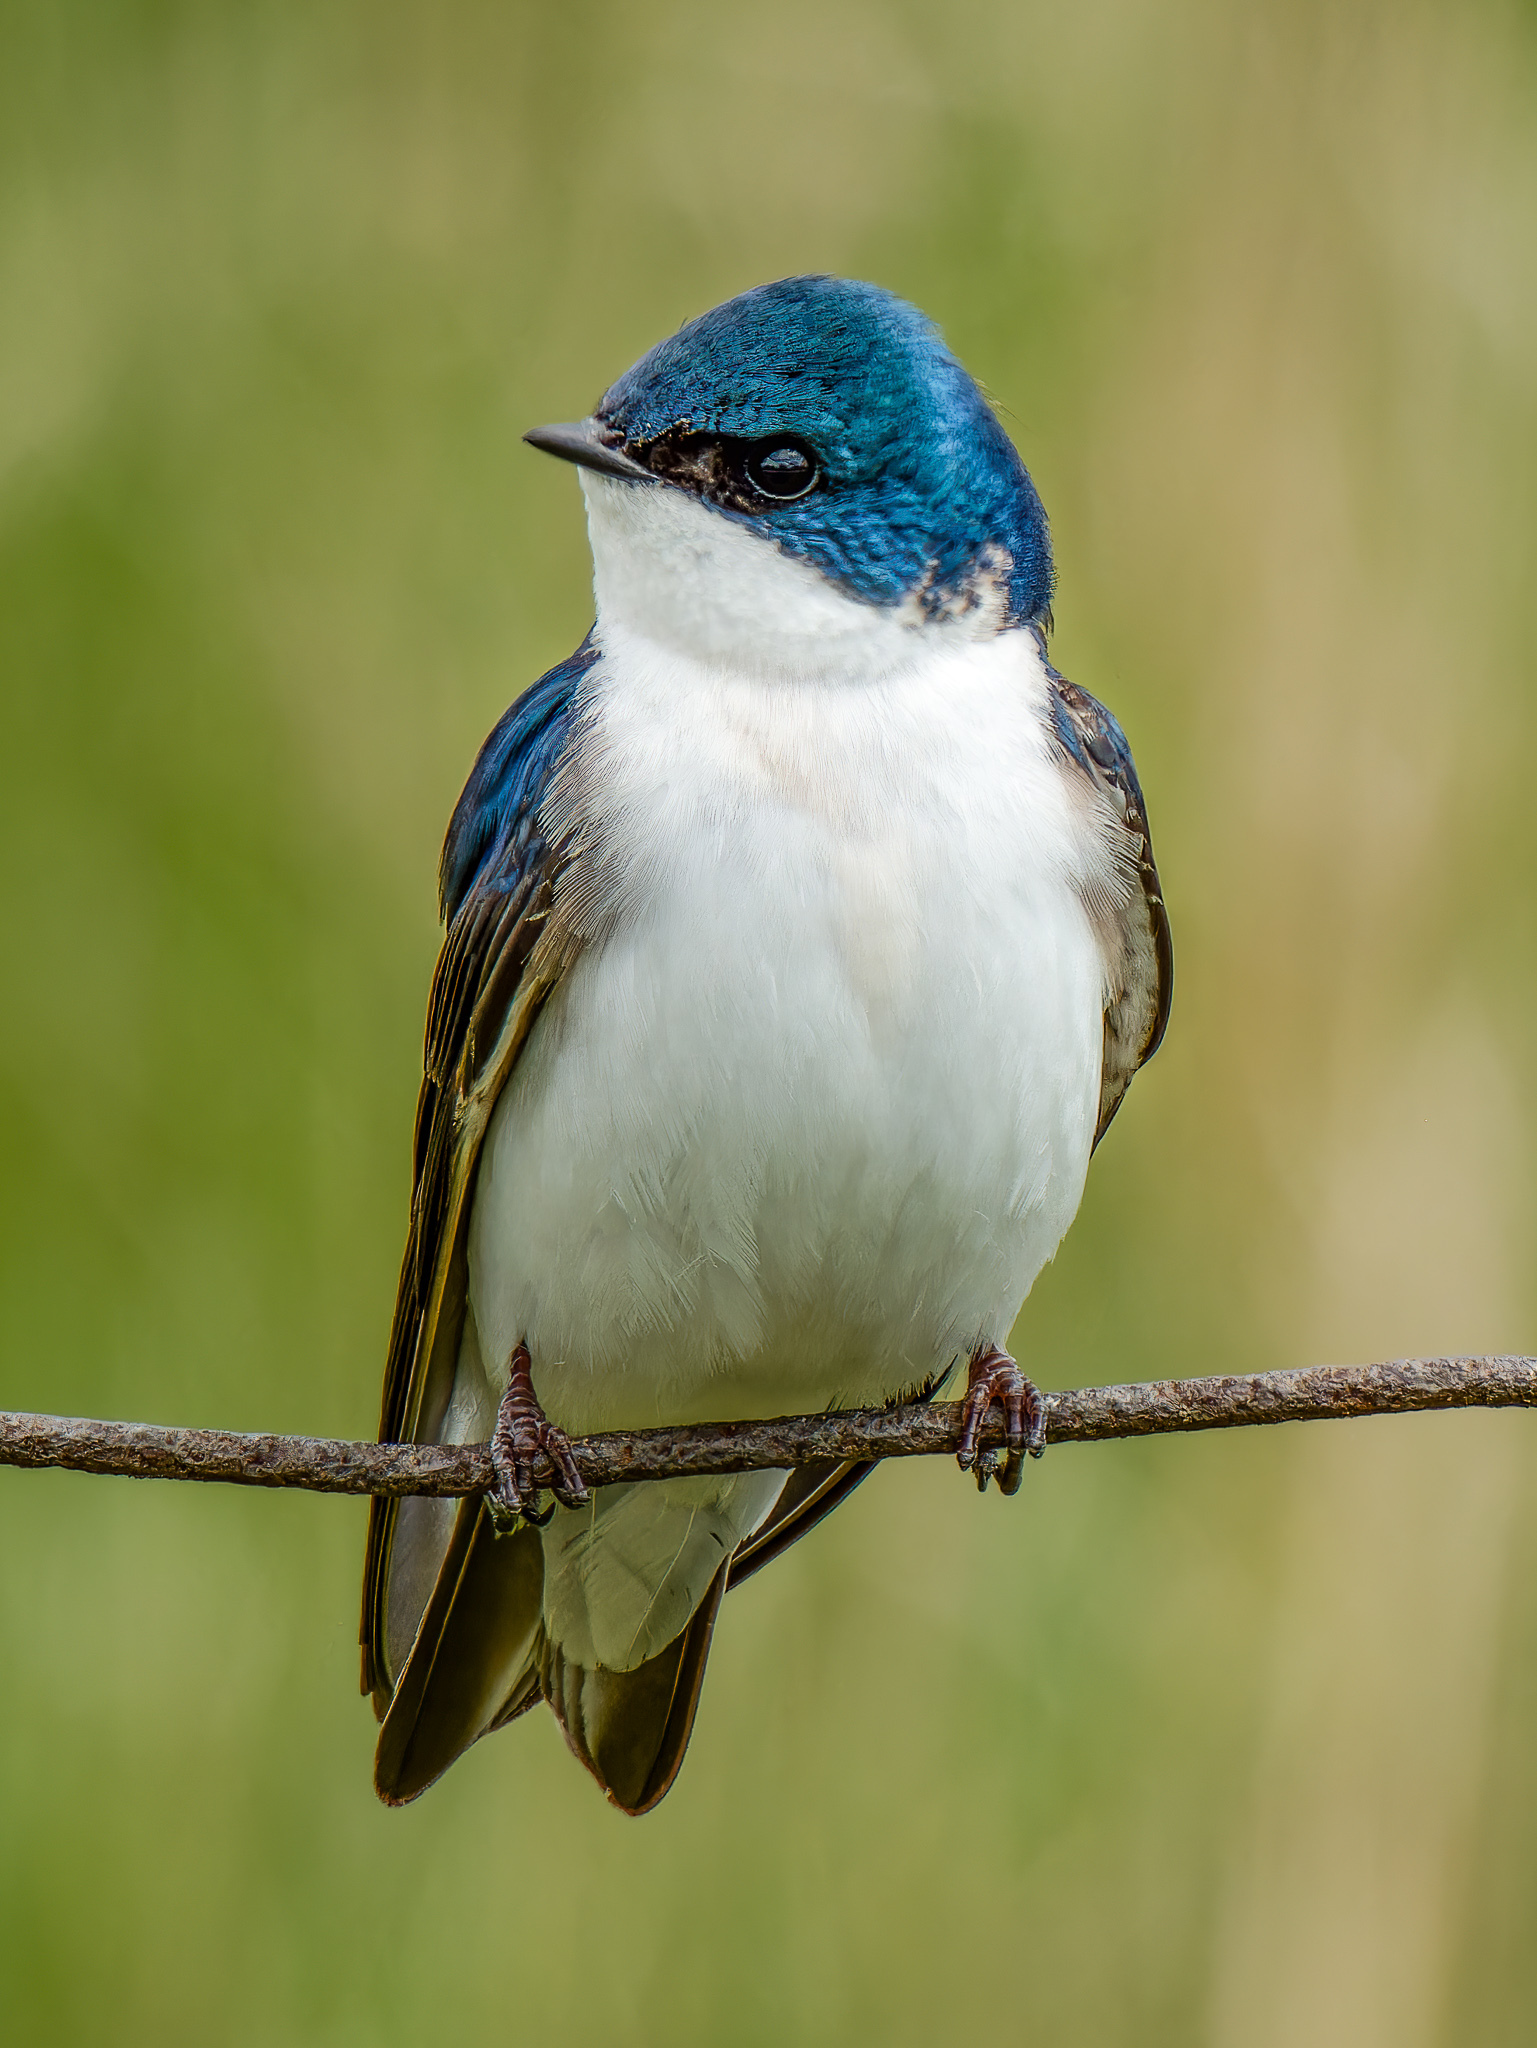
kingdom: Animalia
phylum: Chordata
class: Aves
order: Passeriformes
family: Hirundinidae
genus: Tachycineta
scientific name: Tachycineta bicolor
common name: Tree swallow
